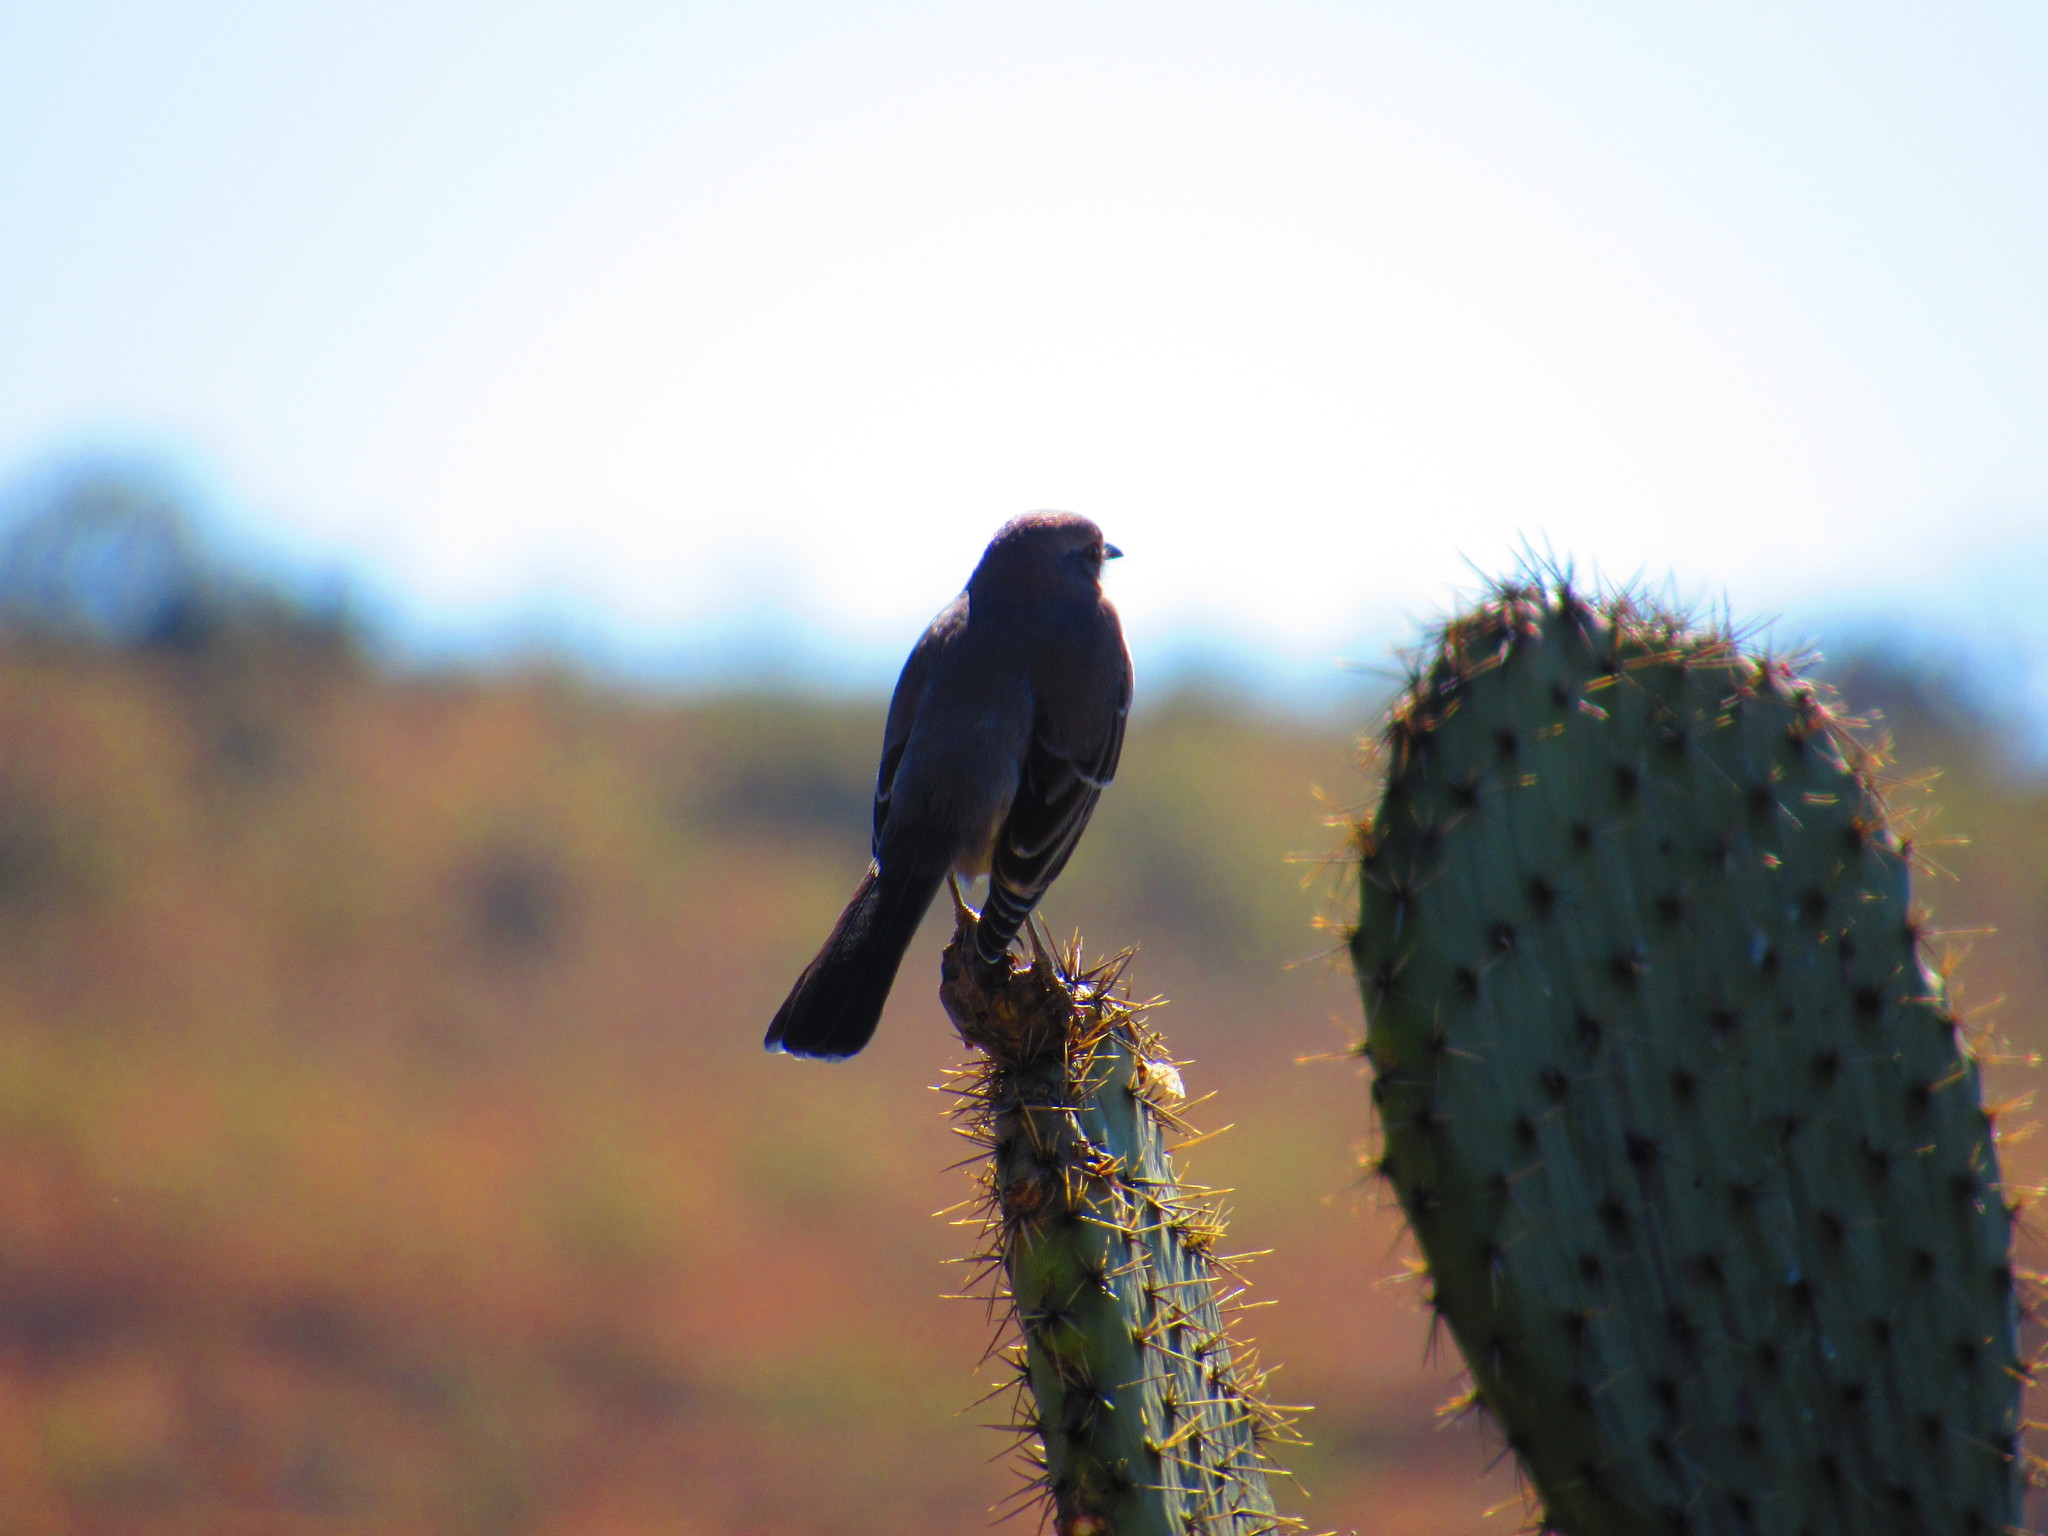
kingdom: Animalia
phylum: Chordata
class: Aves
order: Passeriformes
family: Mimidae
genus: Mimus
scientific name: Mimus polyglottos
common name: Northern mockingbird
